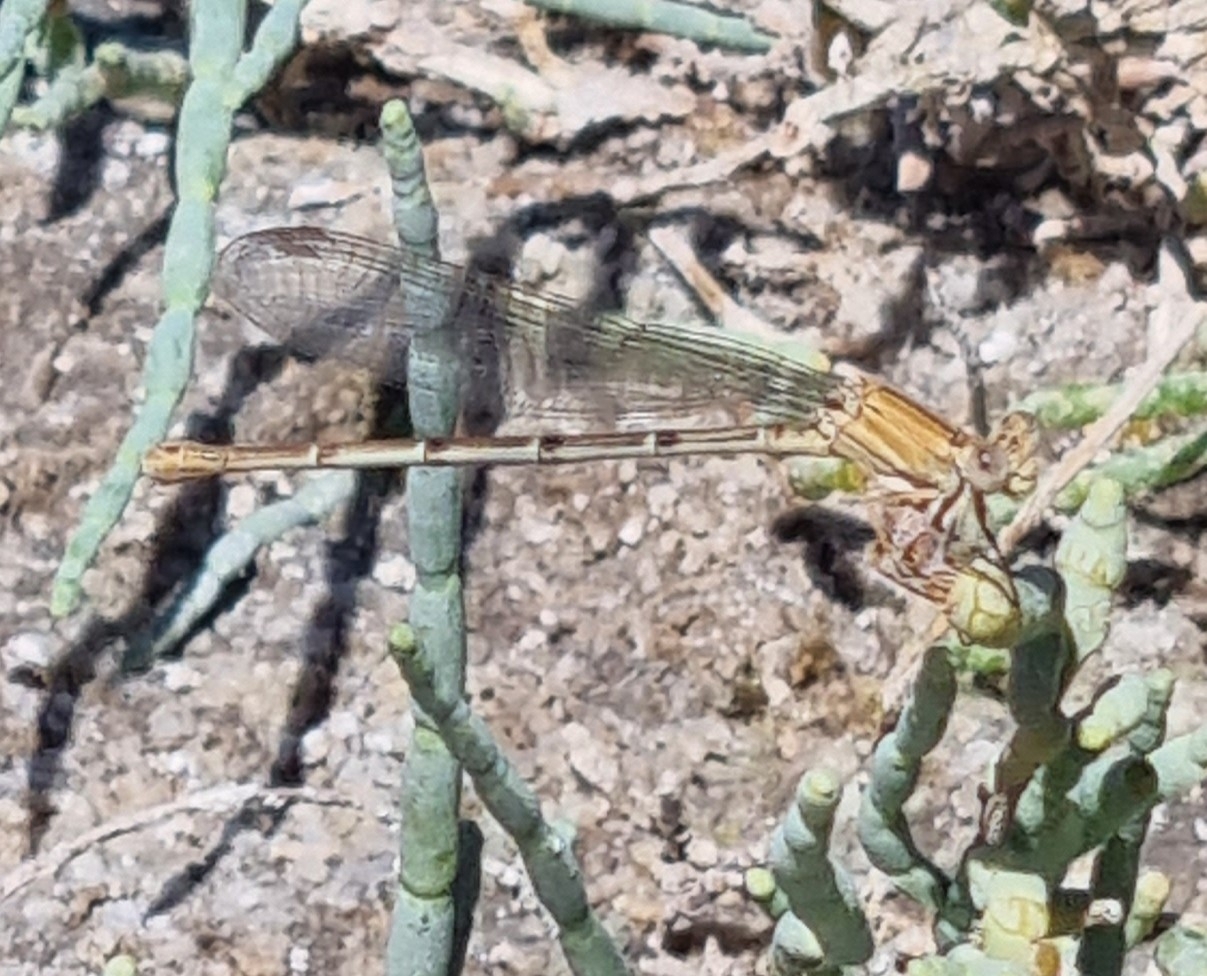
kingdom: Animalia
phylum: Arthropoda
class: Insecta
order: Odonata
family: Coenagrionidae
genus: Argia
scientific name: Argia moesta
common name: Powdered dancer
